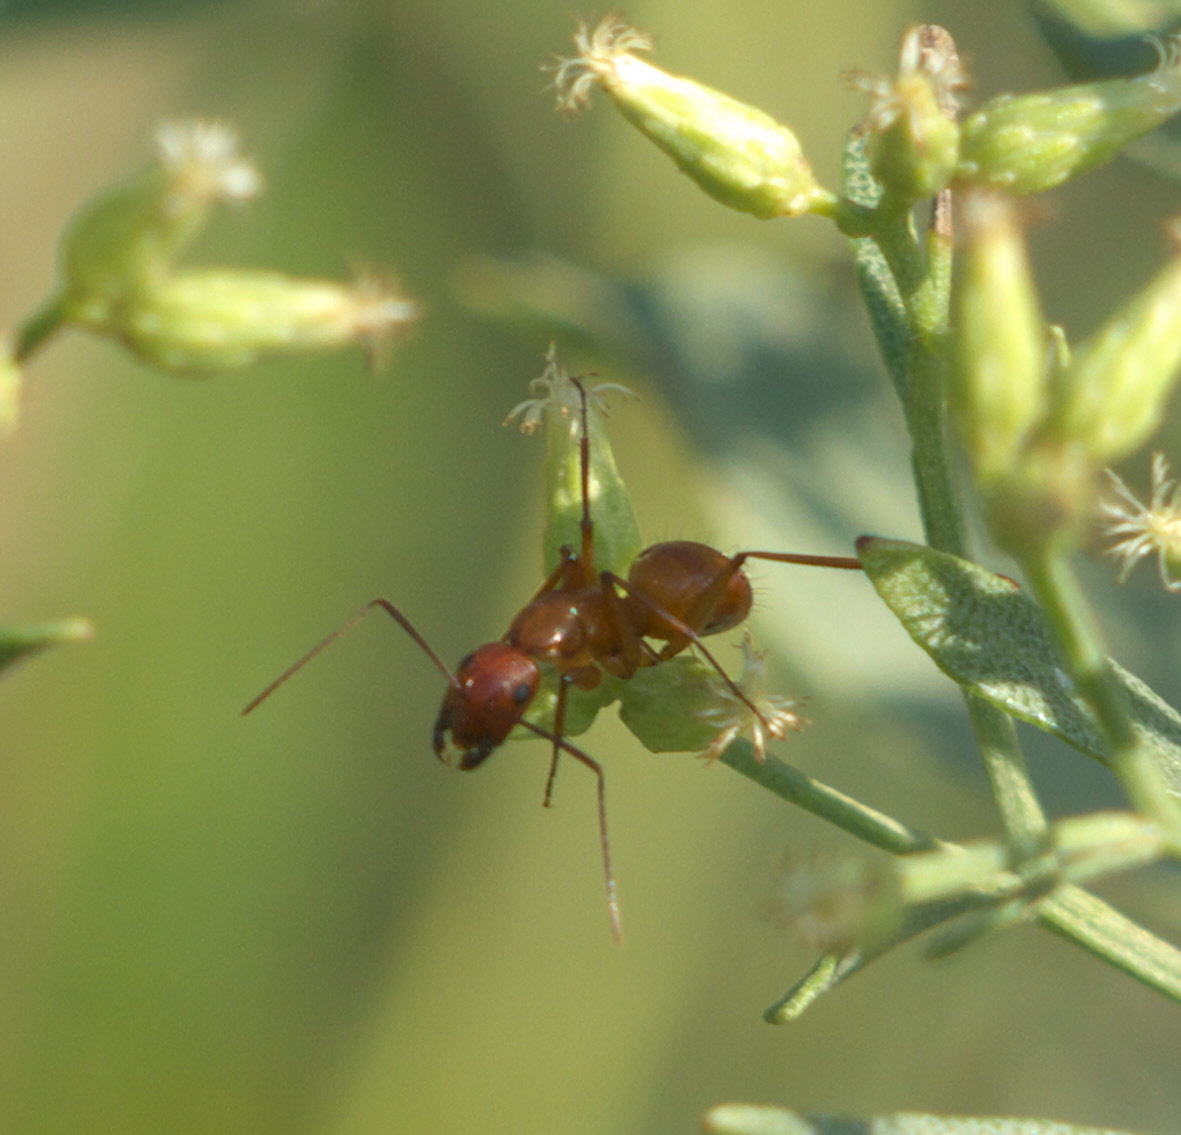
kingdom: Animalia
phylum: Arthropoda
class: Insecta
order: Hymenoptera
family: Formicidae
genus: Camponotus
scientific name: Camponotus castaneus
